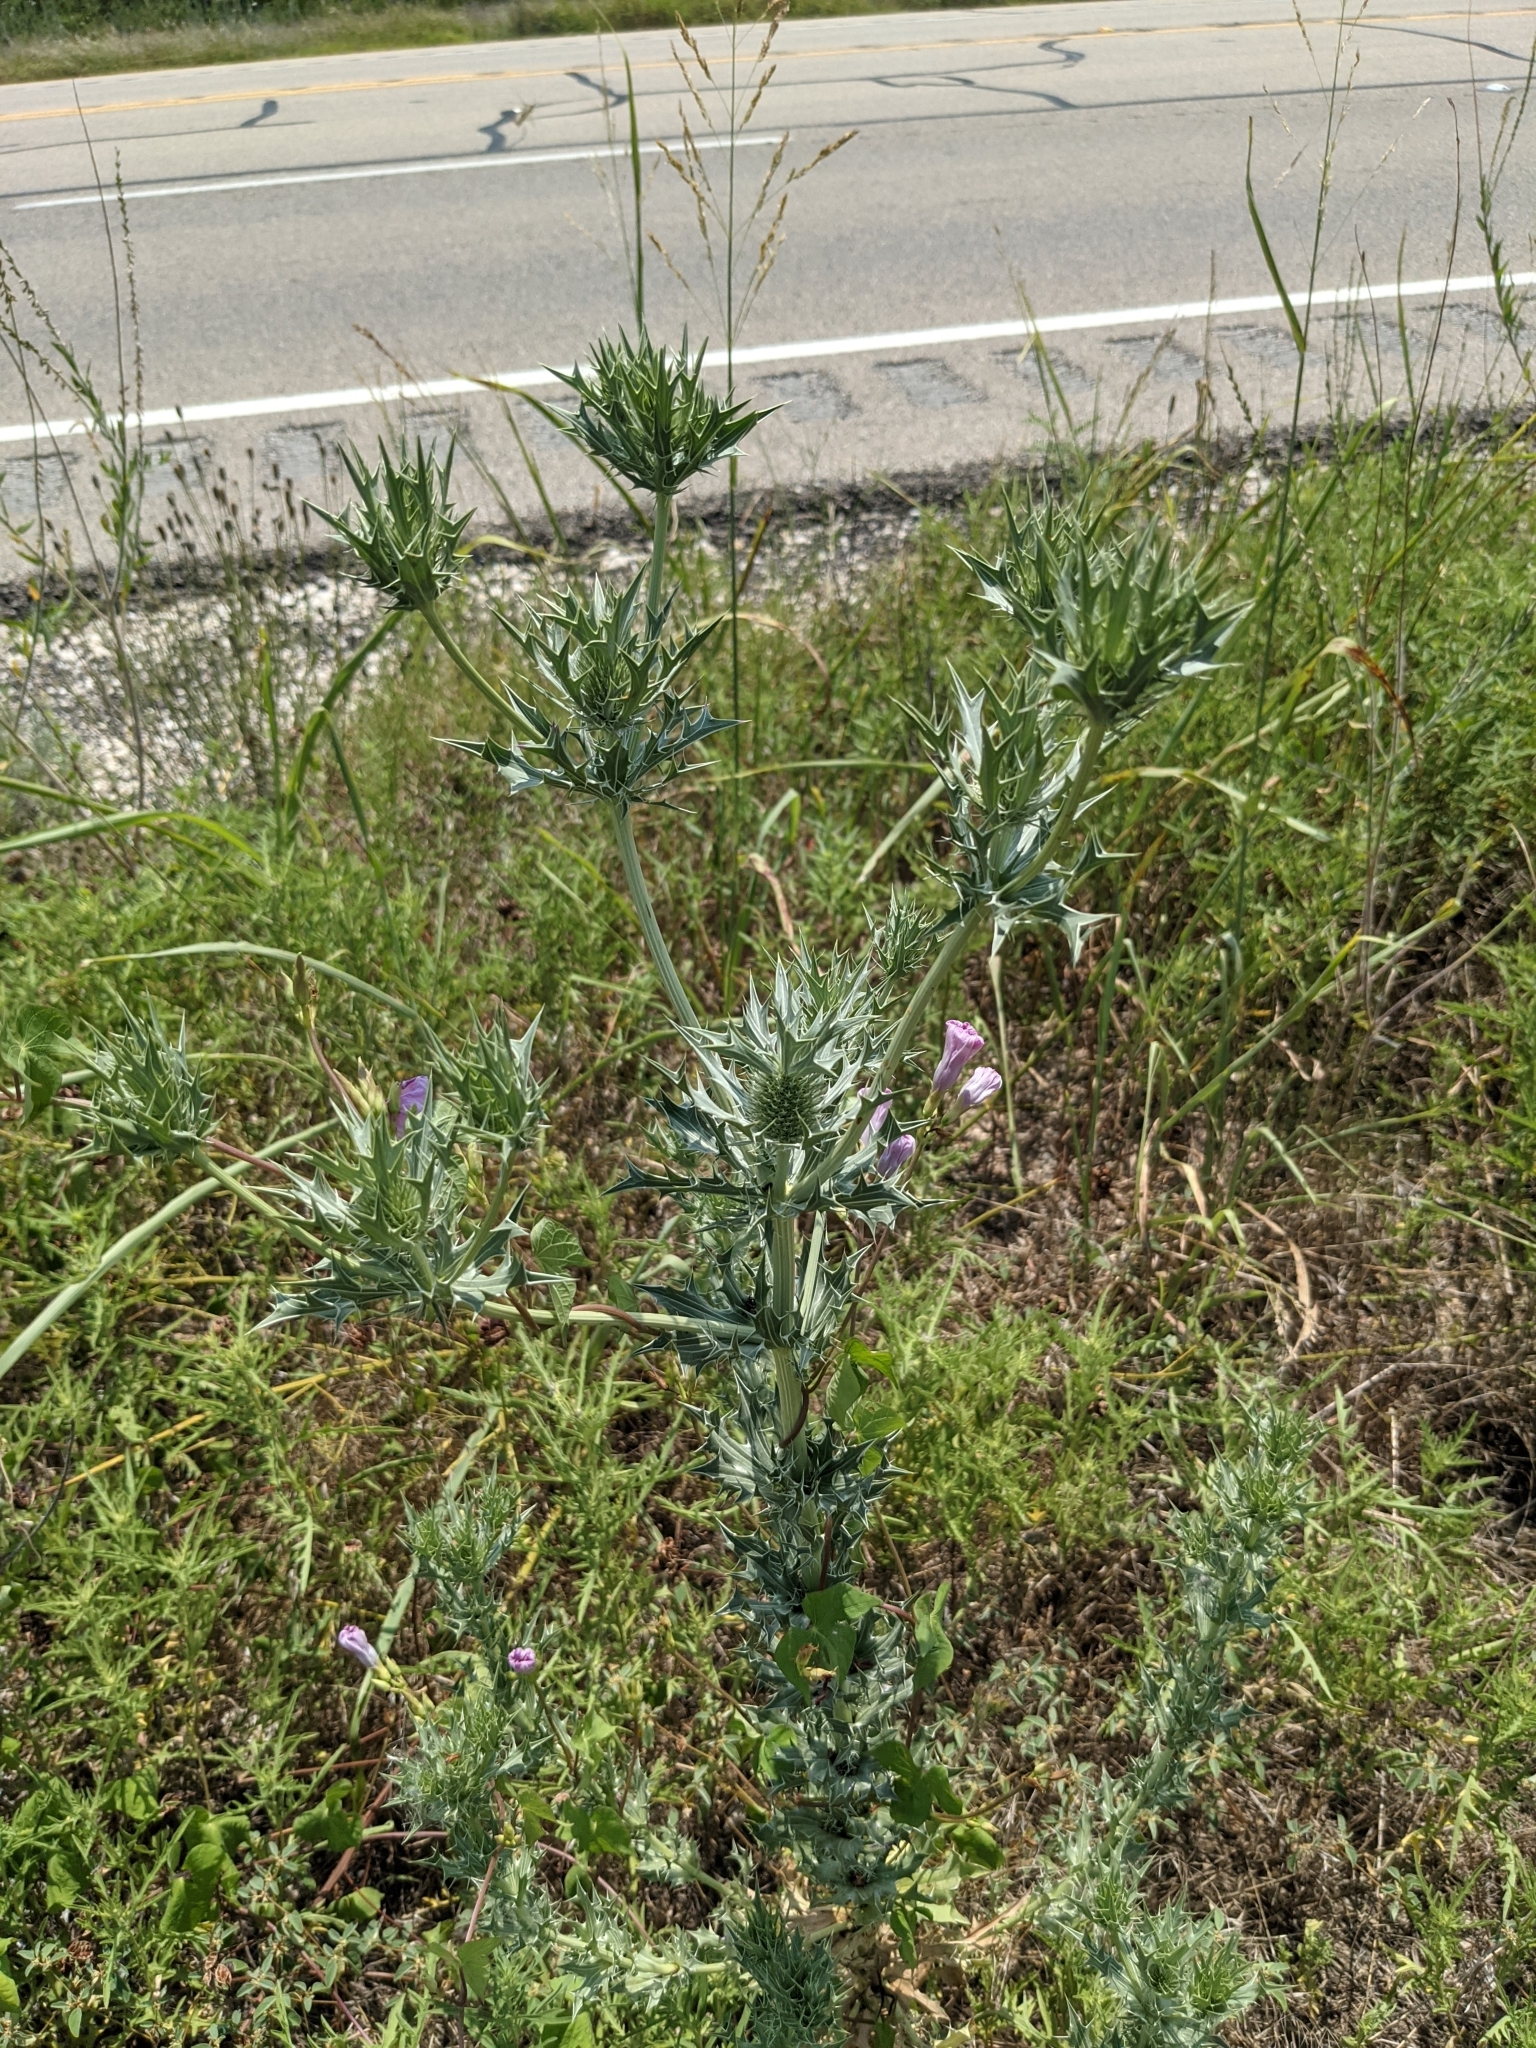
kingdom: Plantae
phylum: Tracheophyta
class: Magnoliopsida
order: Apiales
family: Apiaceae
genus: Eryngium
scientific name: Eryngium leavenworthii
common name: Leavenworth's eryngo
